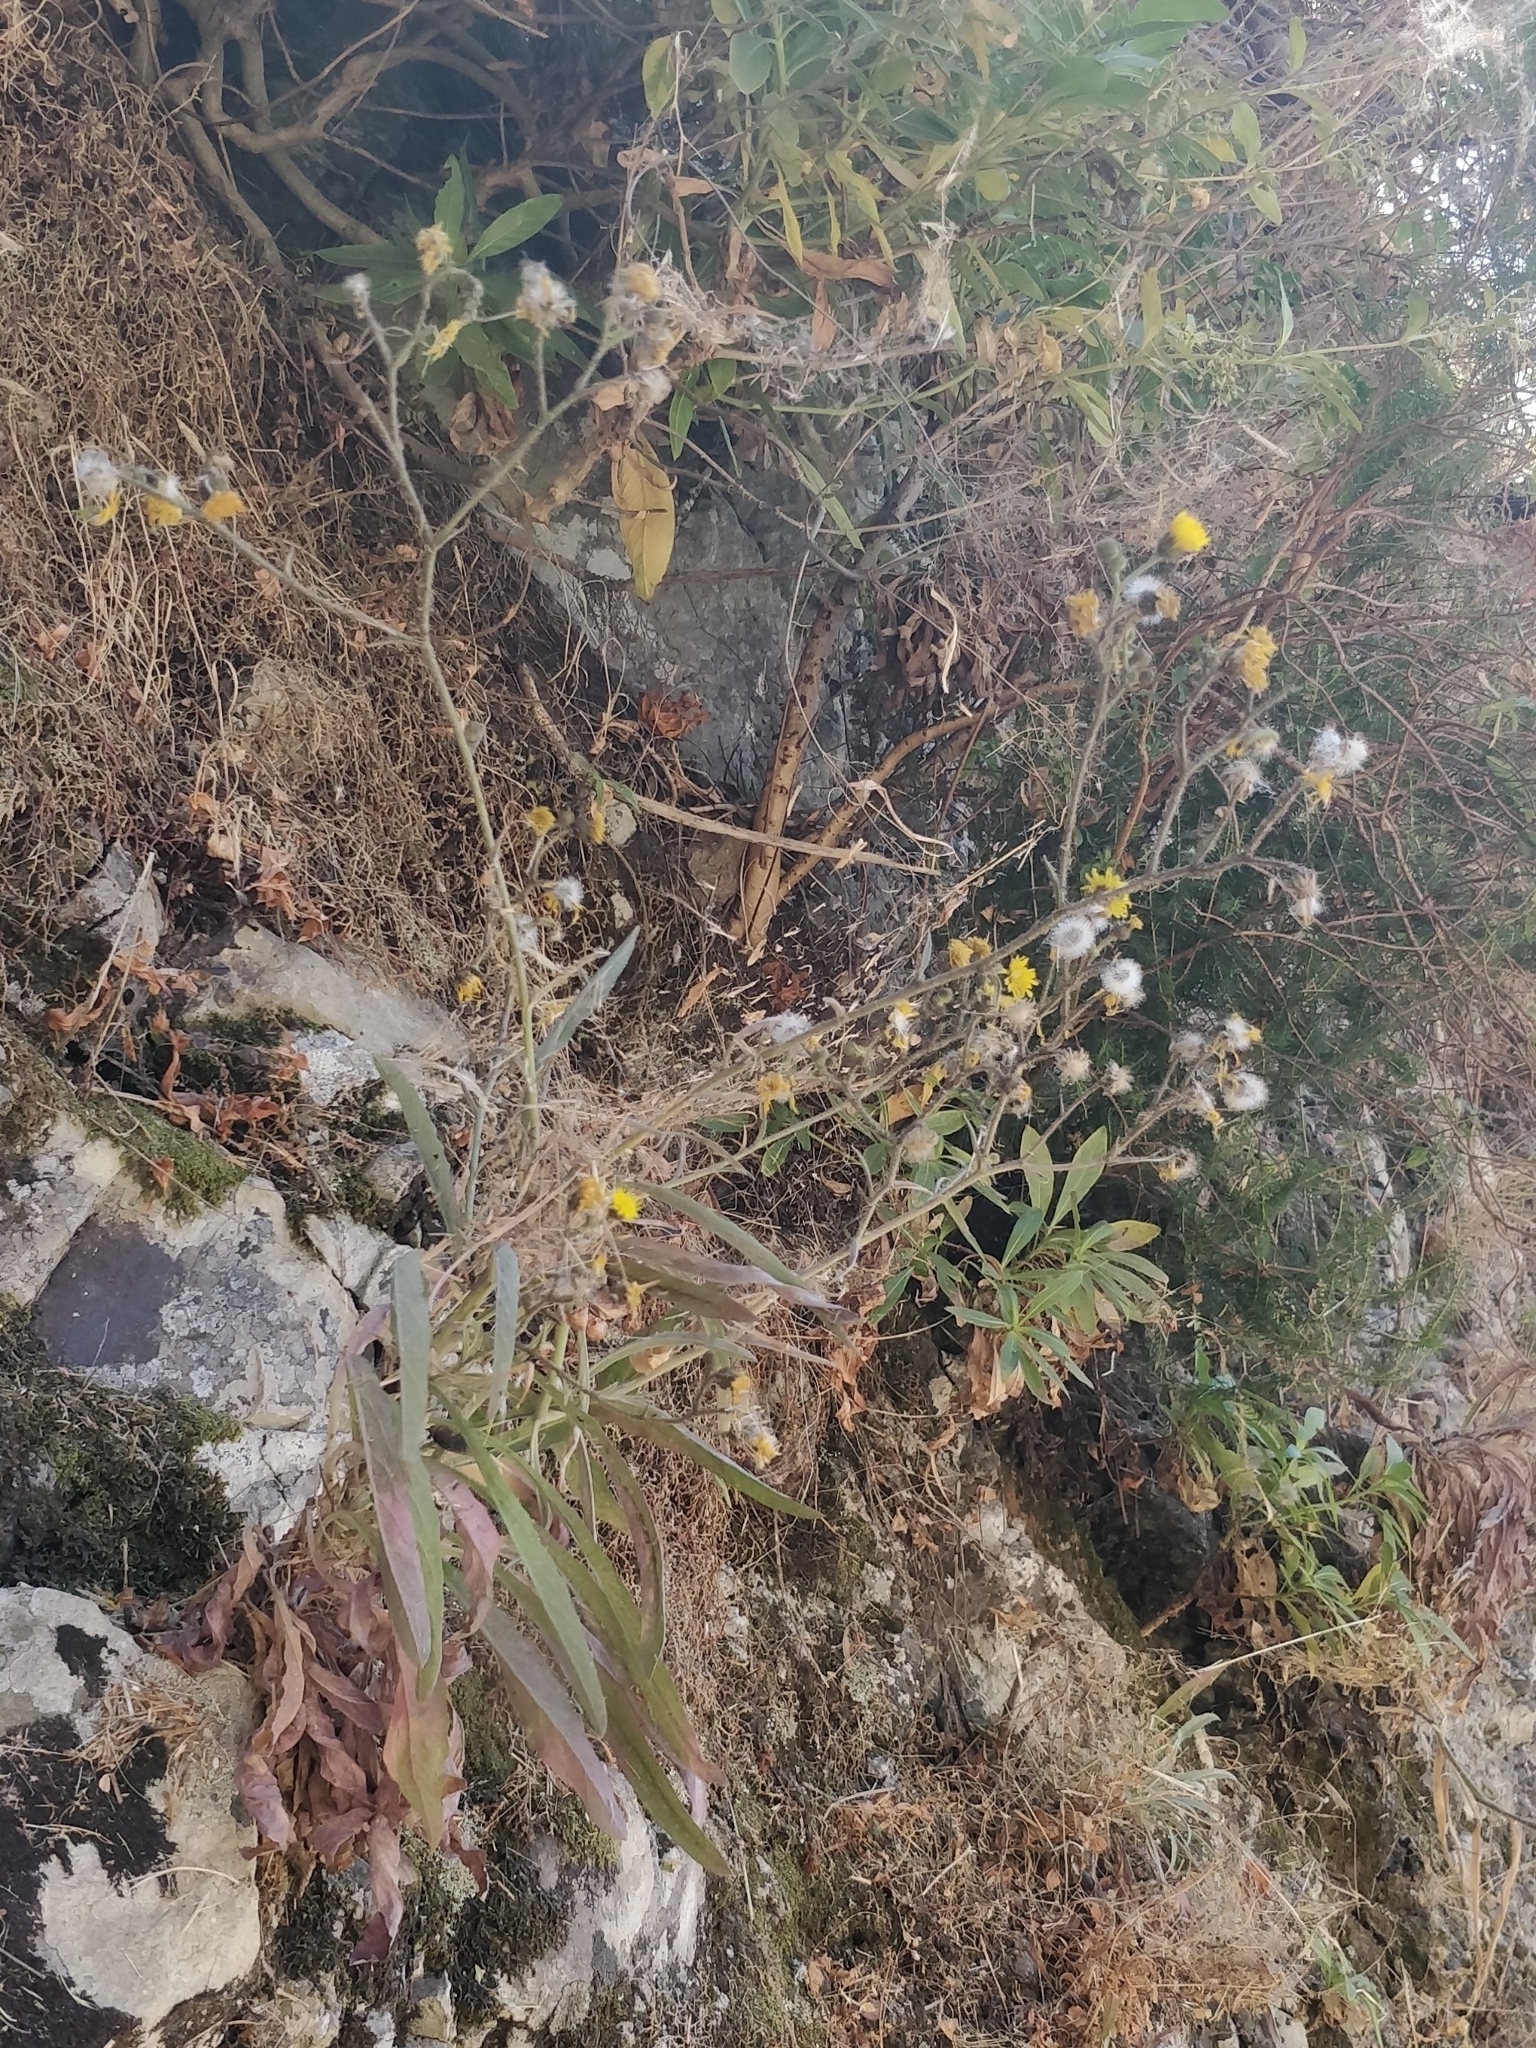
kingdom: Plantae
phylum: Tracheophyta
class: Magnoliopsida
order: Asterales
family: Asteraceae
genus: Andryala
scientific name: Andryala glandulosa
